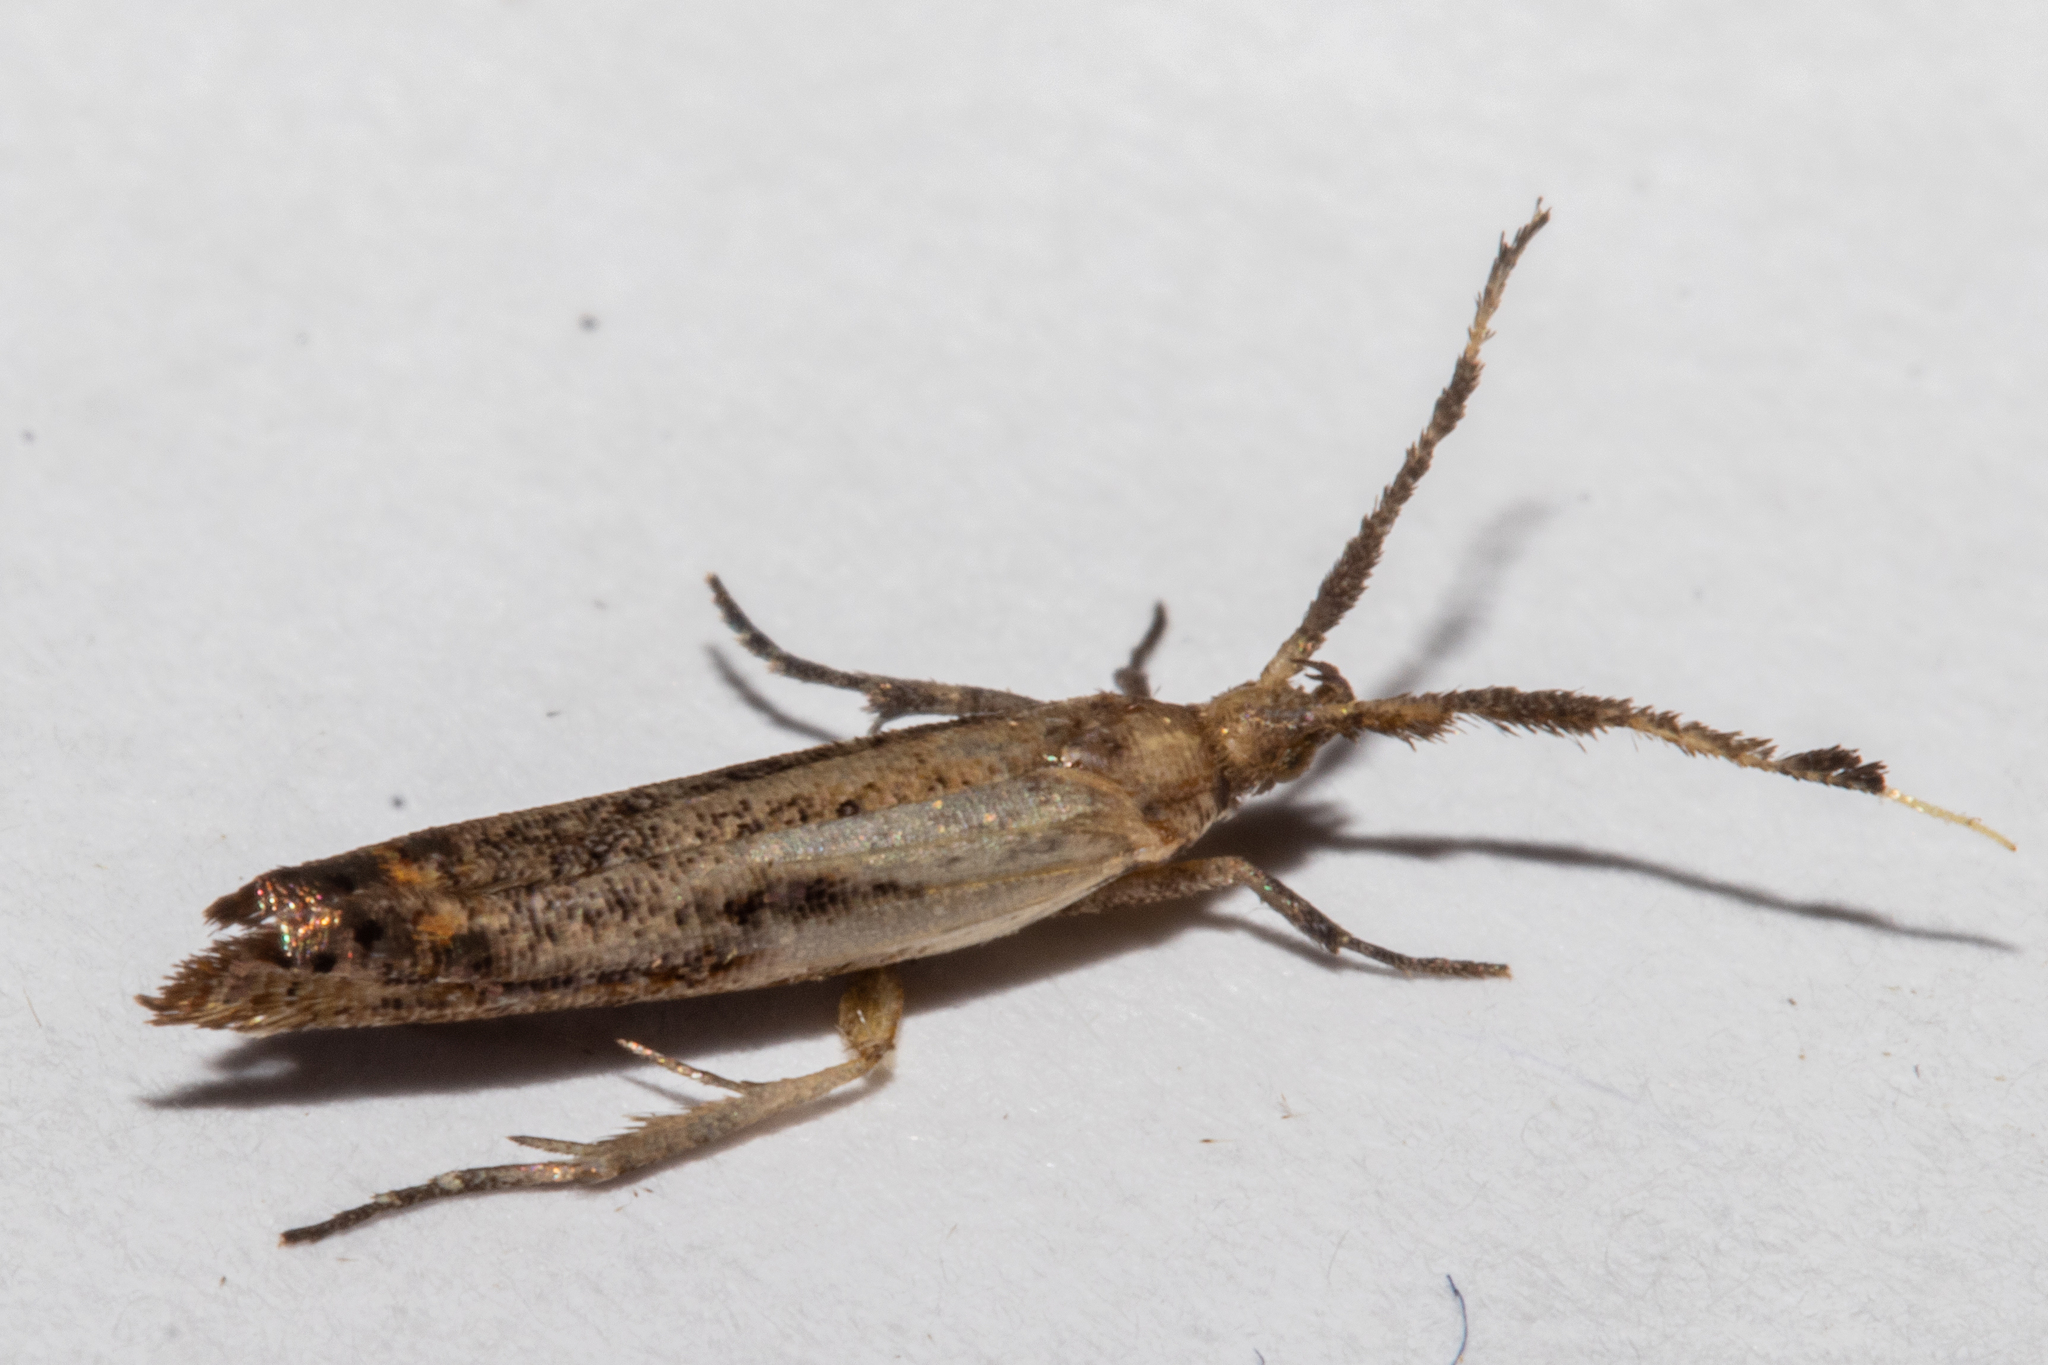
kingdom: Animalia
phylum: Arthropoda
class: Insecta
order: Lepidoptera
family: Plutellidae
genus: Protosynaema
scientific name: Protosynaema steropucha
